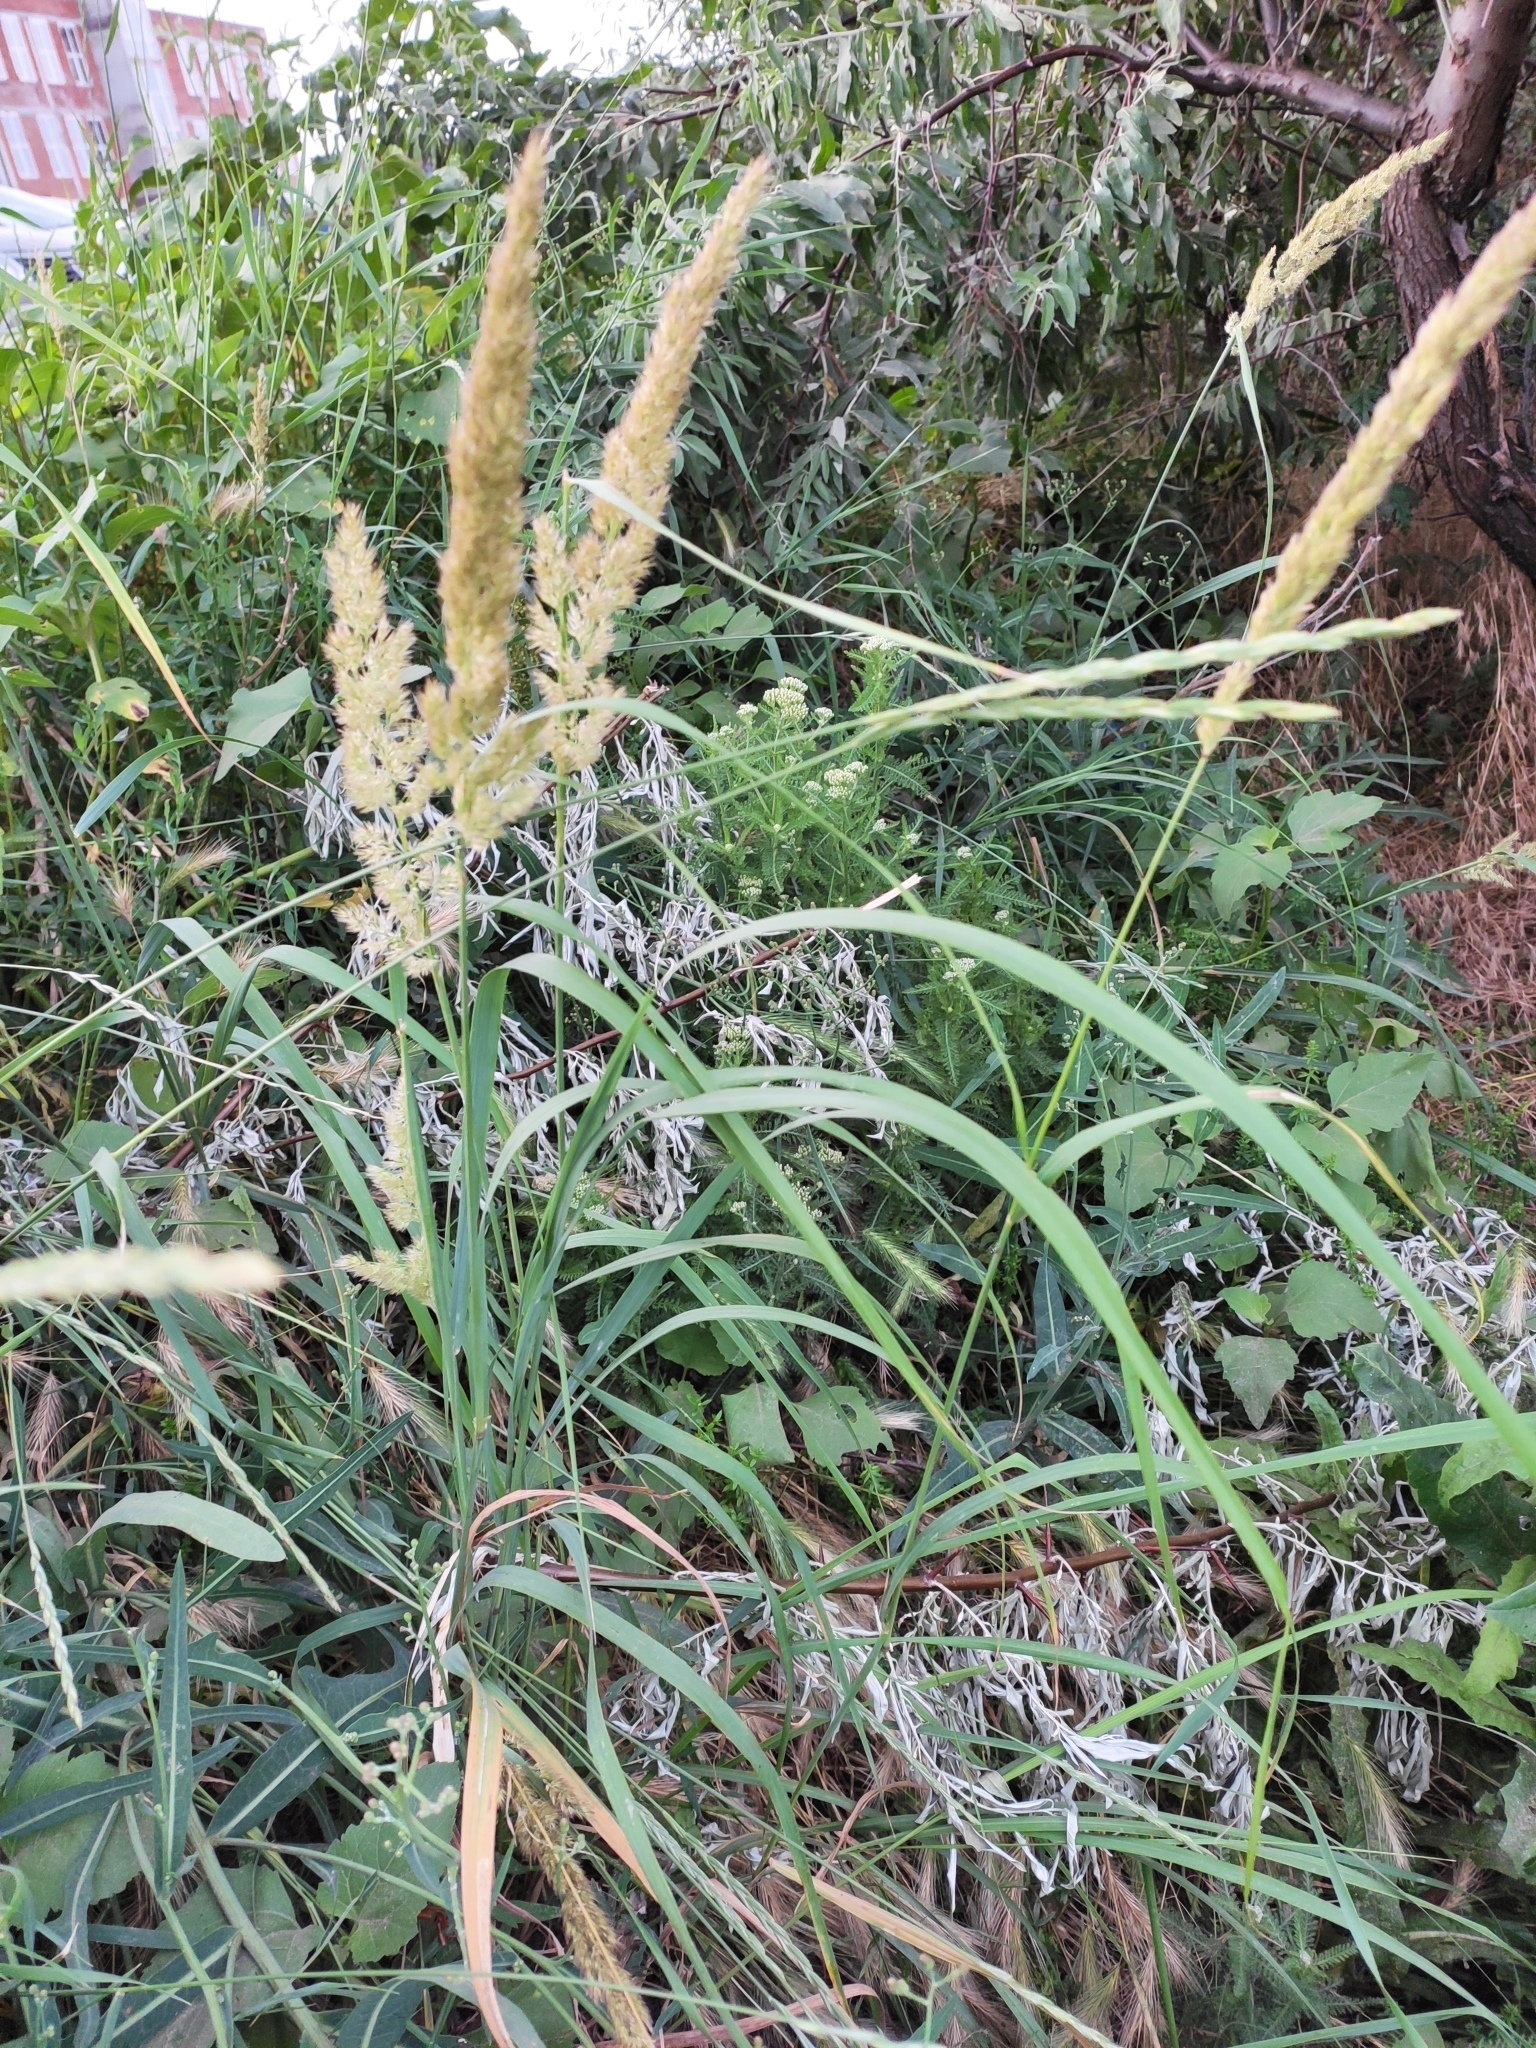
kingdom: Plantae
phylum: Tracheophyta
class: Liliopsida
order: Poales
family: Poaceae
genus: Calamagrostis
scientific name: Calamagrostis epigejos
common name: Wood small-reed
